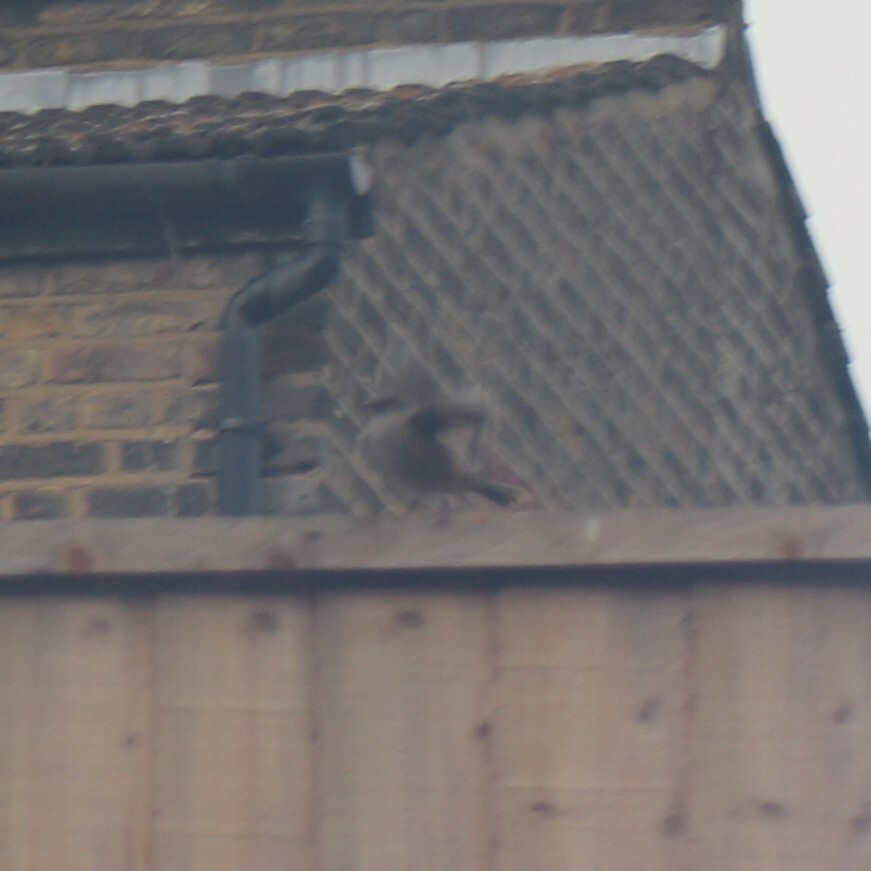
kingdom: Animalia
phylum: Chordata
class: Aves
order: Passeriformes
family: Prunellidae
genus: Prunella
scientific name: Prunella modularis
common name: Dunnock
